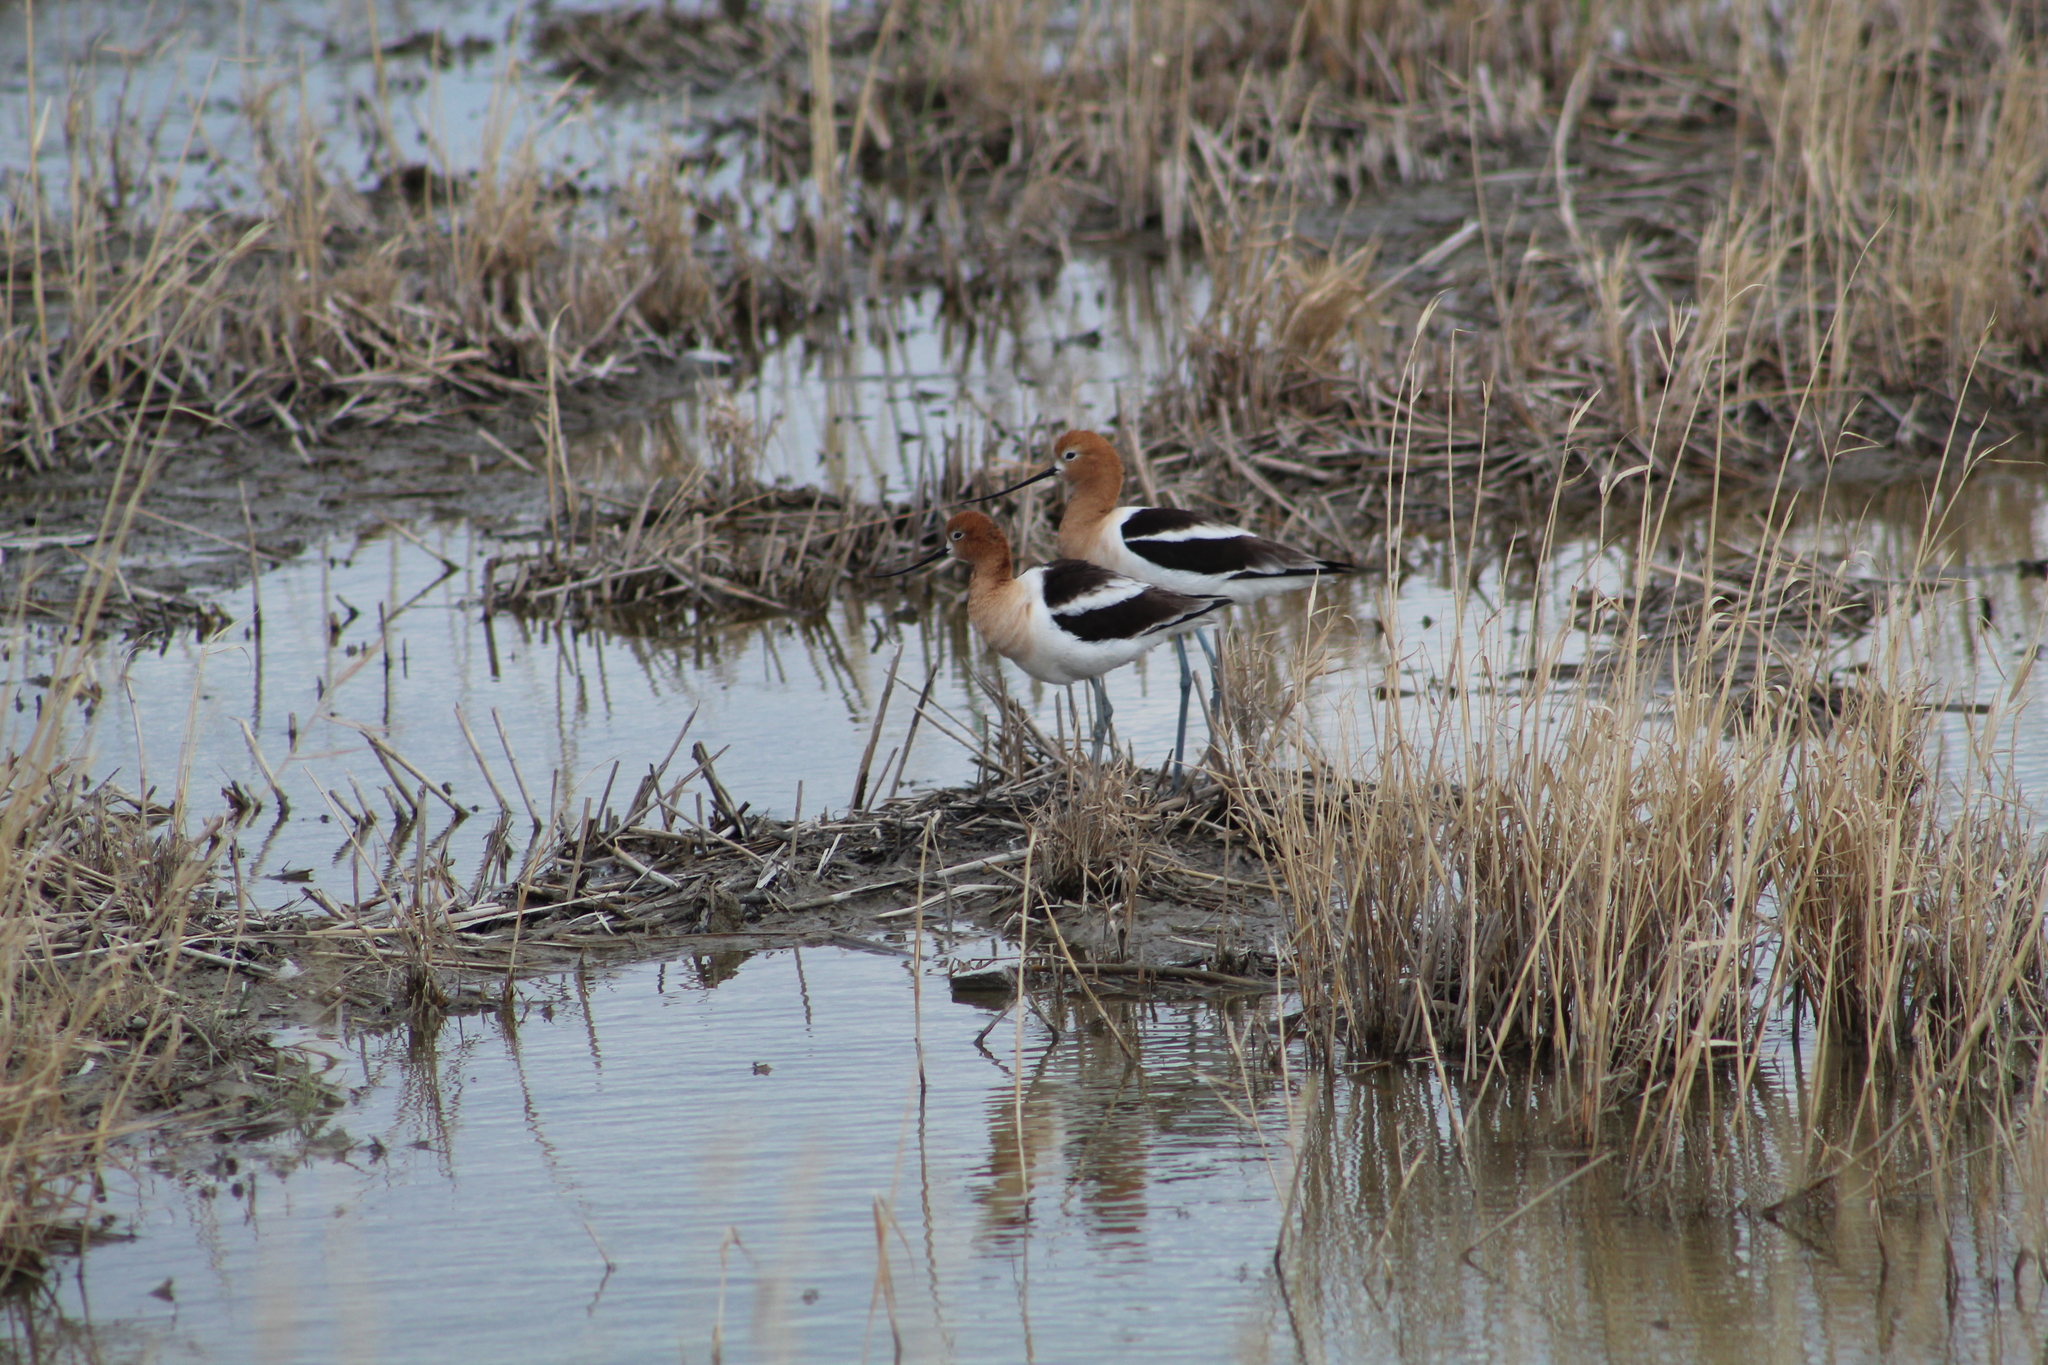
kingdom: Animalia
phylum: Chordata
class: Aves
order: Charadriiformes
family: Recurvirostridae
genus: Recurvirostra
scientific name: Recurvirostra americana
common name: American avocet
